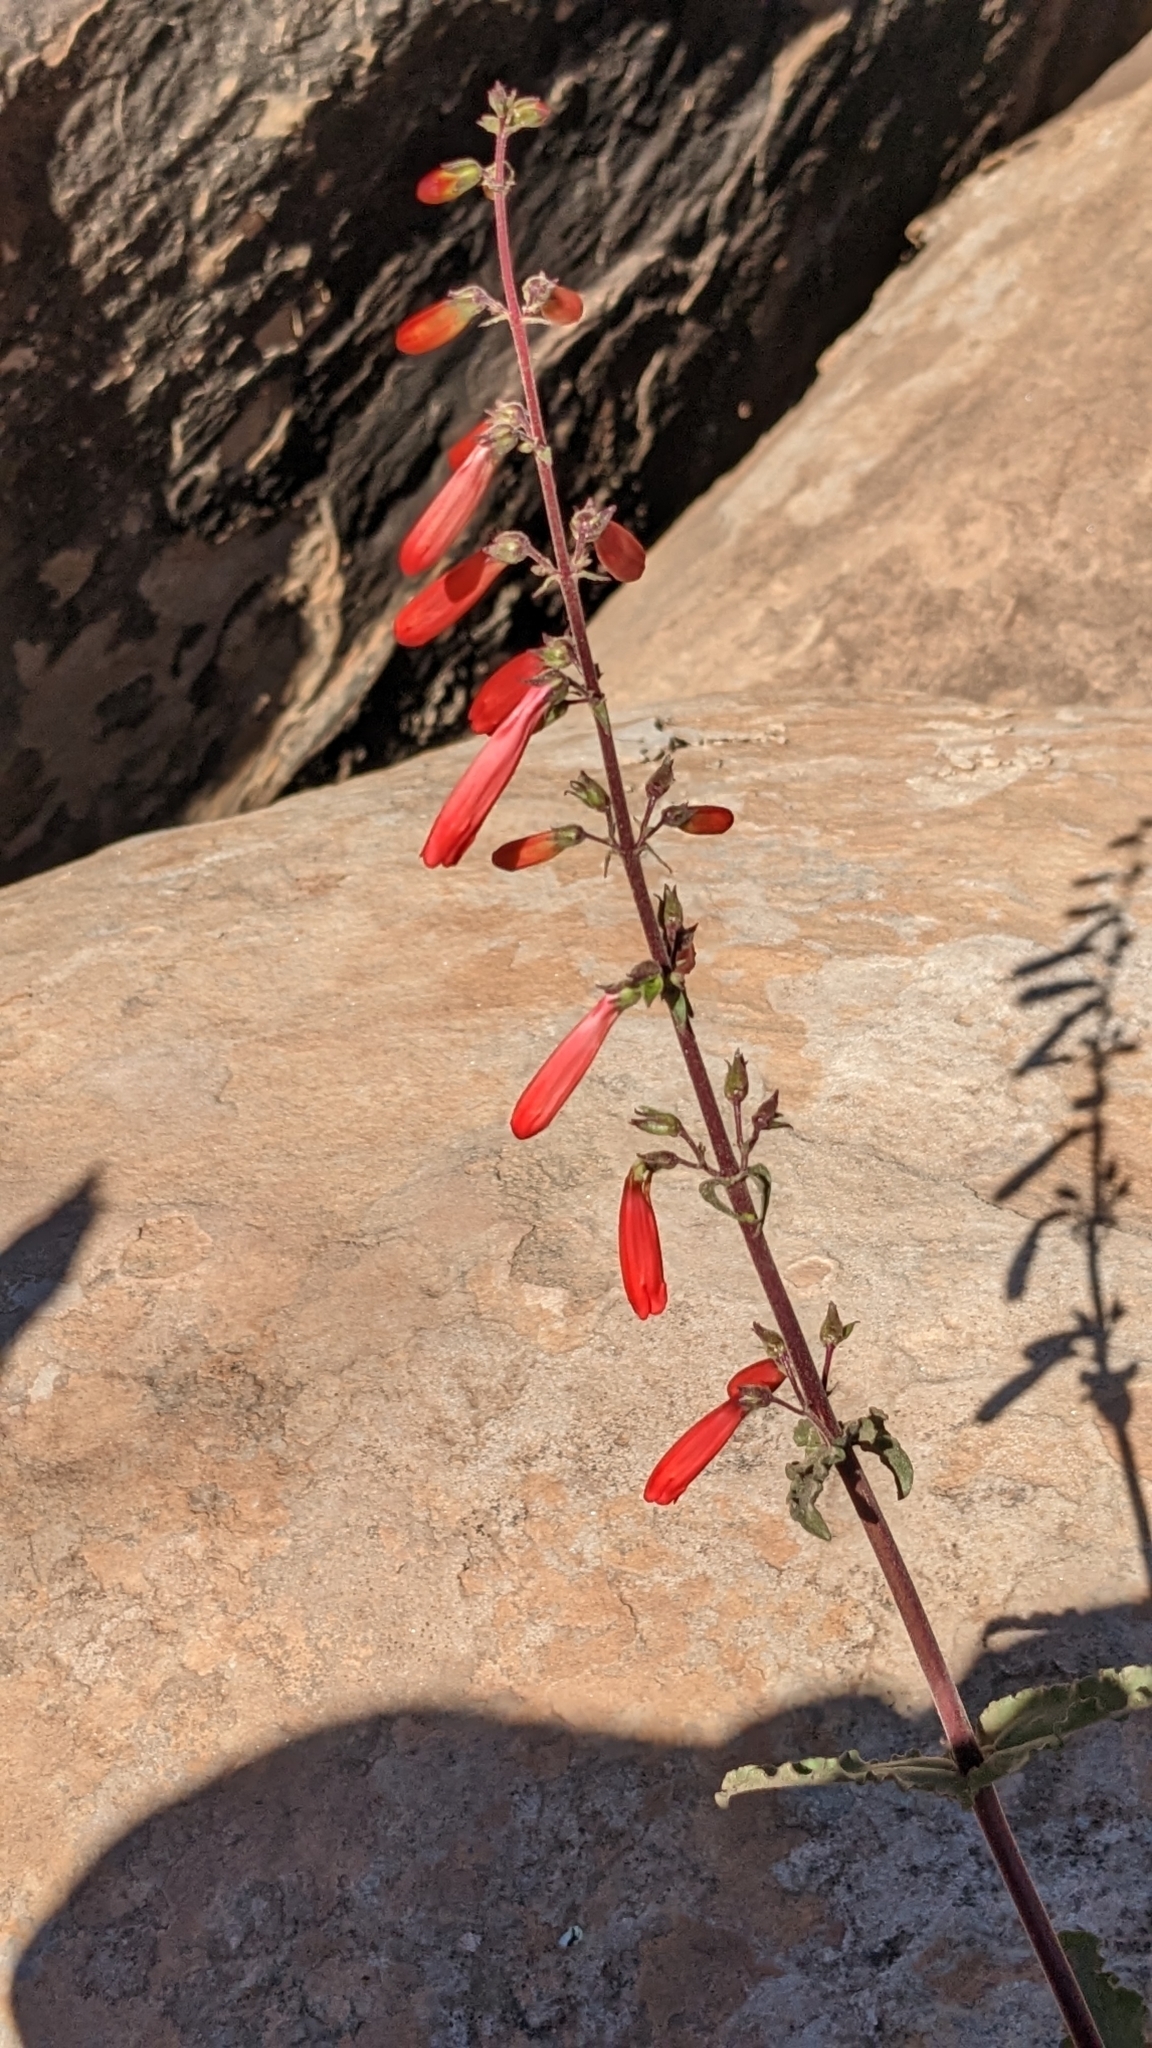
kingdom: Plantae
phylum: Tracheophyta
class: Magnoliopsida
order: Lamiales
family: Plantaginaceae
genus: Penstemon
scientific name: Penstemon eatonii
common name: Eaton's penstemon
